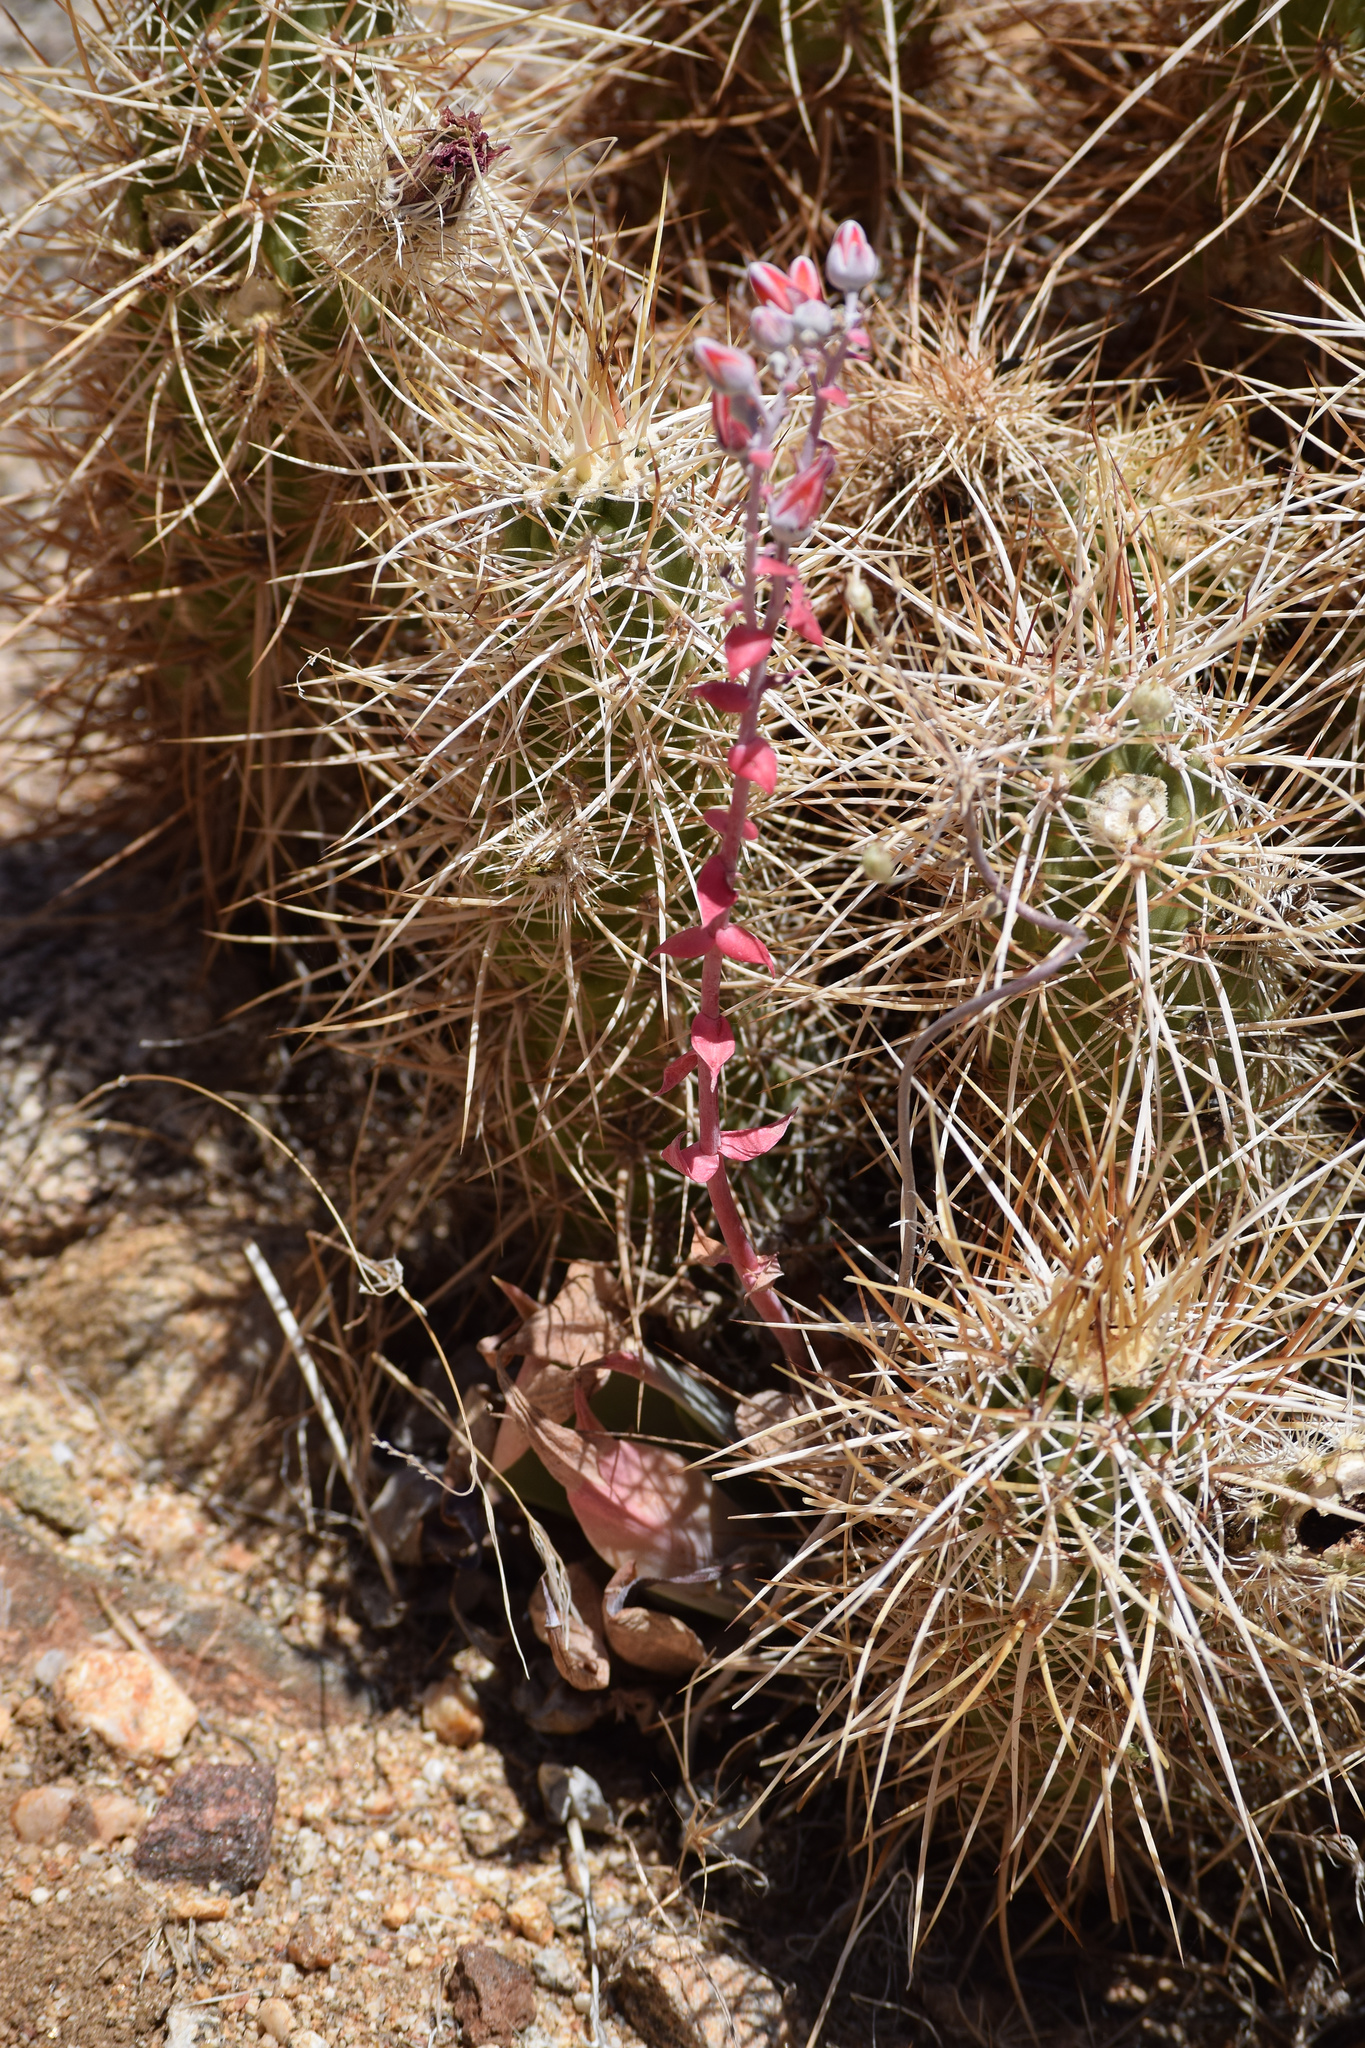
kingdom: Plantae
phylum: Tracheophyta
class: Magnoliopsida
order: Saxifragales
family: Crassulaceae
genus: Dudleya
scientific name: Dudleya arizonica
